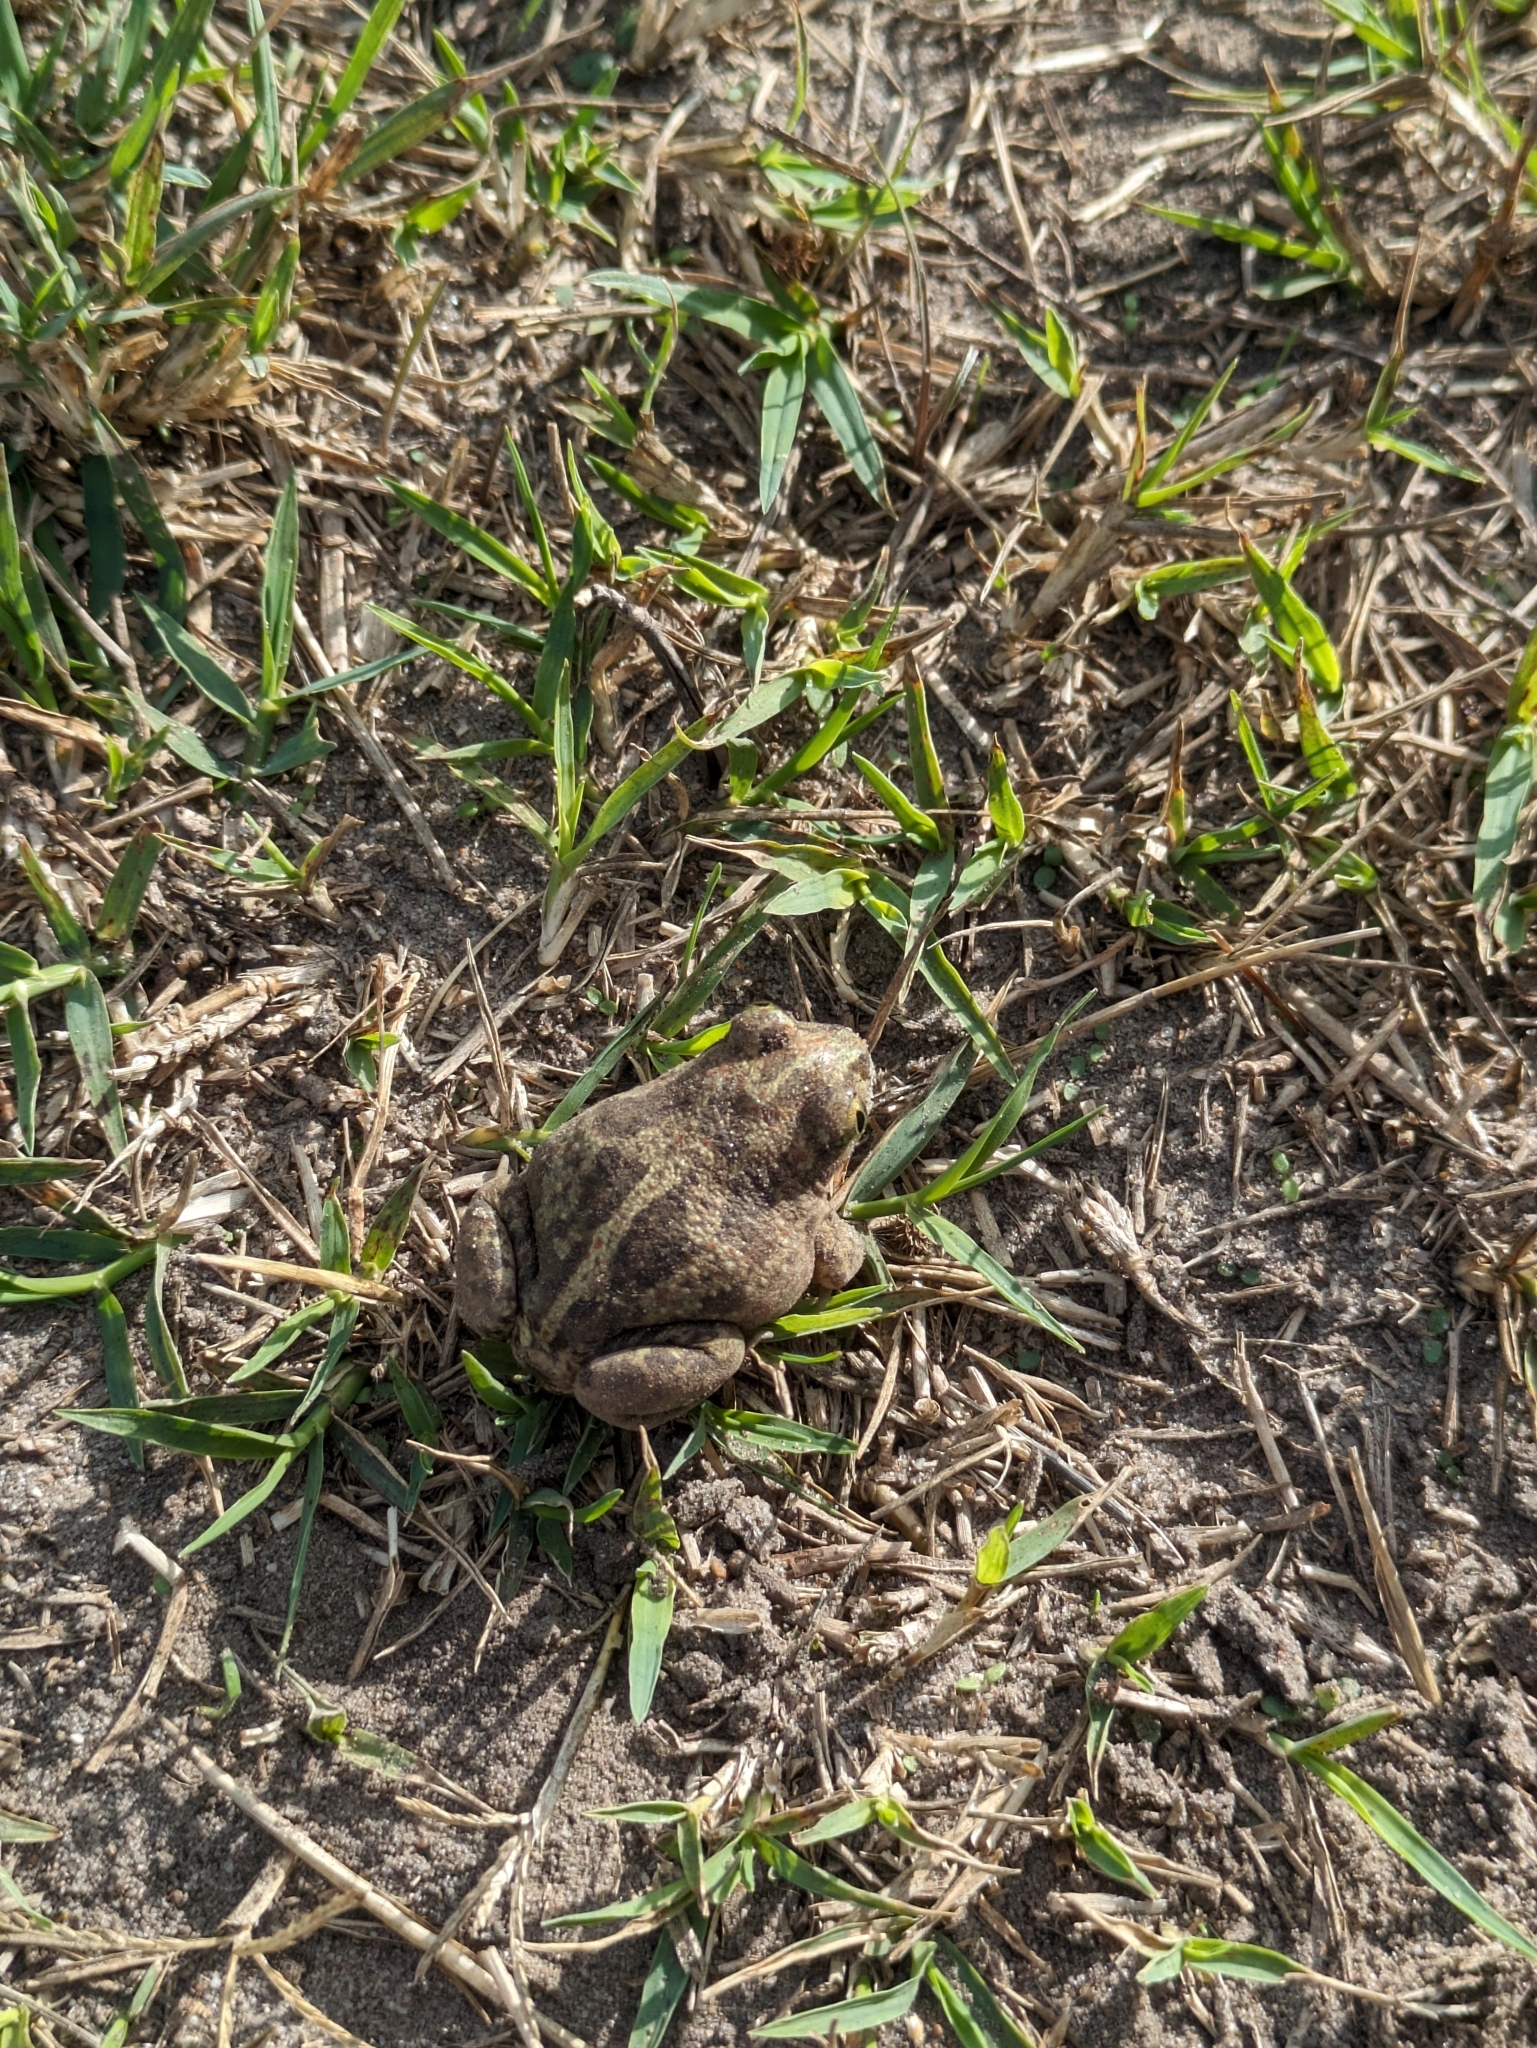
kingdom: Animalia
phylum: Chordata
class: Amphibia
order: Anura
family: Pelobatidae
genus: Pelobates
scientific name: Pelobates fuscus
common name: Common eurasian spadefoot toad
